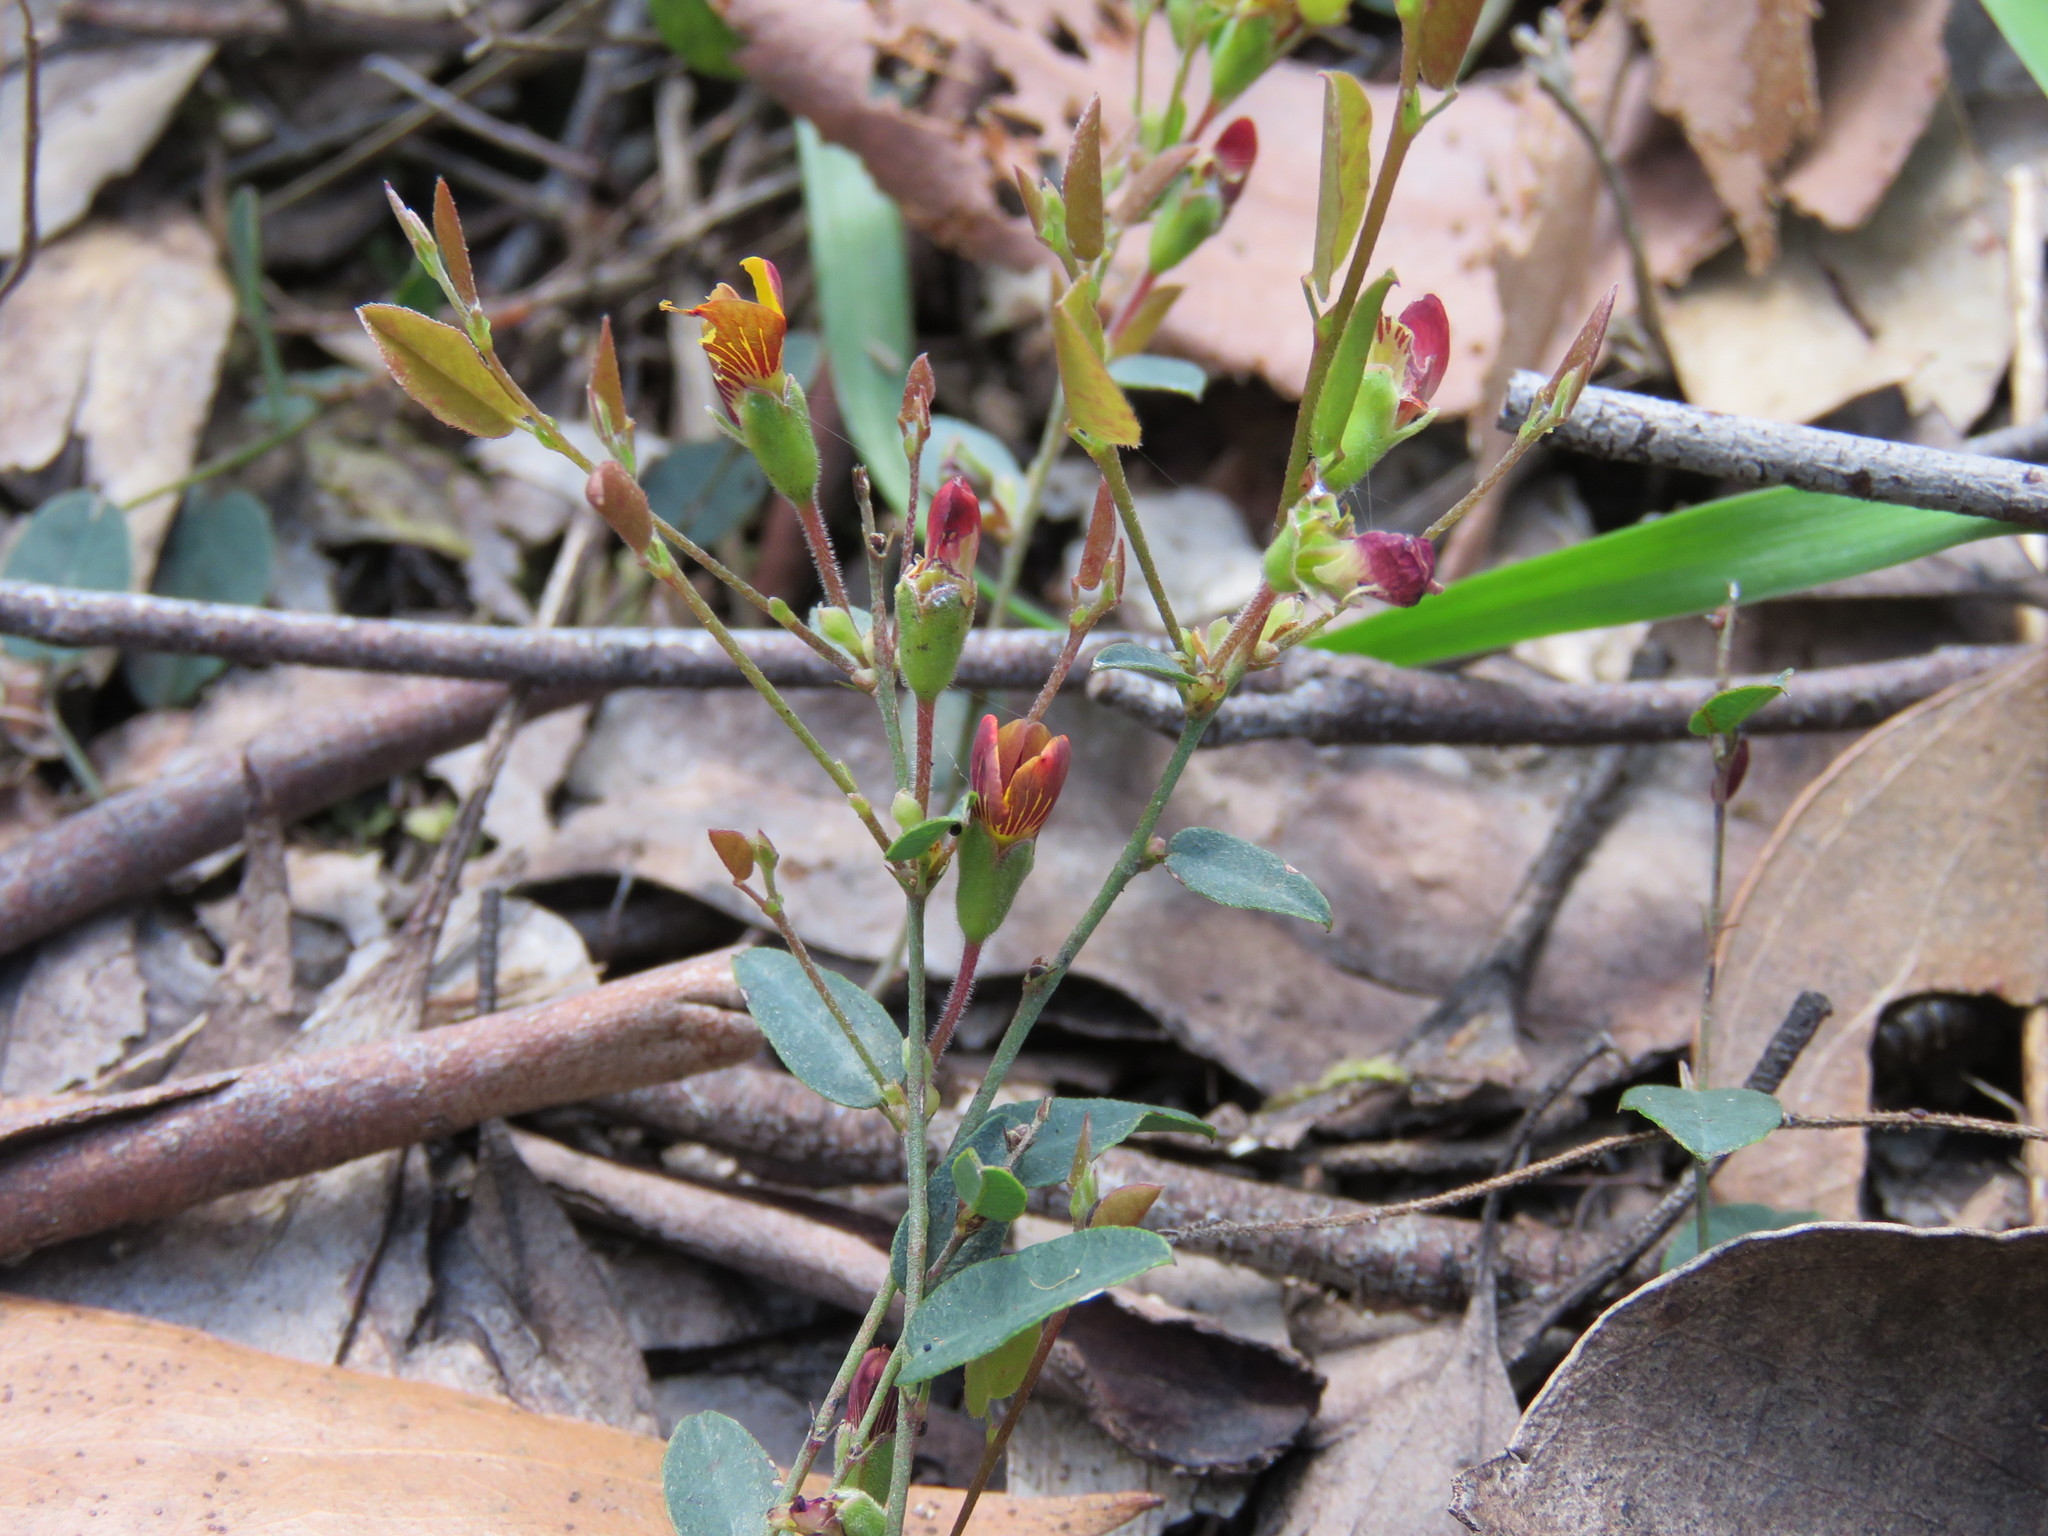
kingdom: Plantae
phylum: Tracheophyta
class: Magnoliopsida
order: Fabales
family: Fabaceae
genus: Bossiaea
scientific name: Bossiaea prostrata
